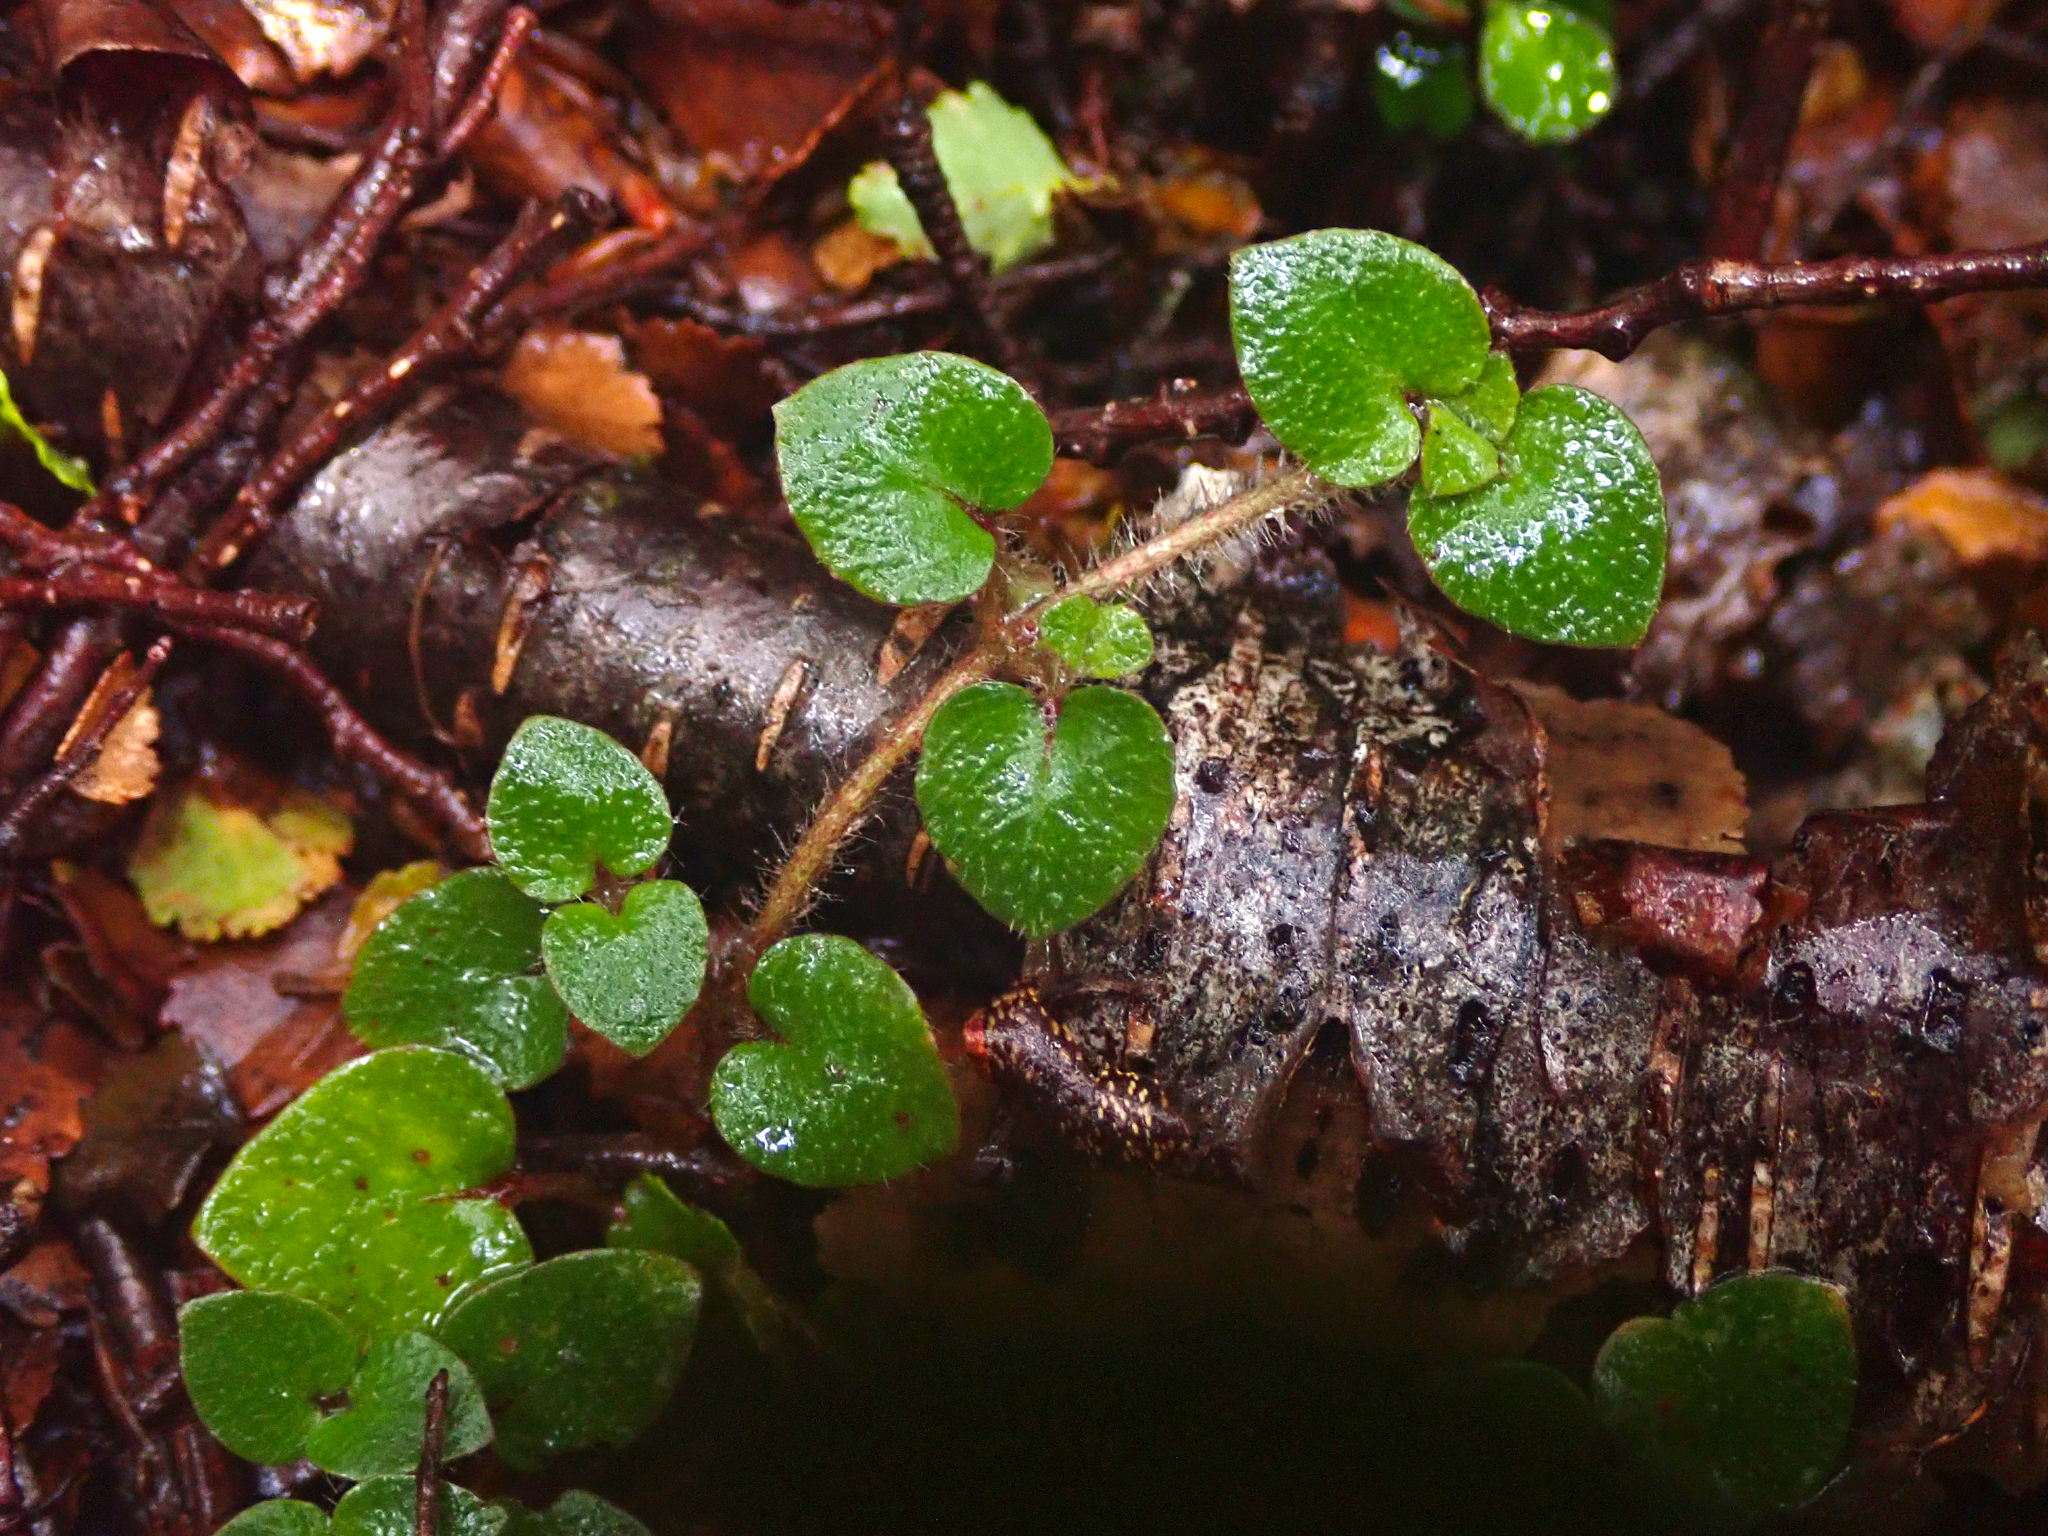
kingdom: Plantae
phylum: Tracheophyta
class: Magnoliopsida
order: Gentianales
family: Rubiaceae
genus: Nertera
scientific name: Nertera villosa
